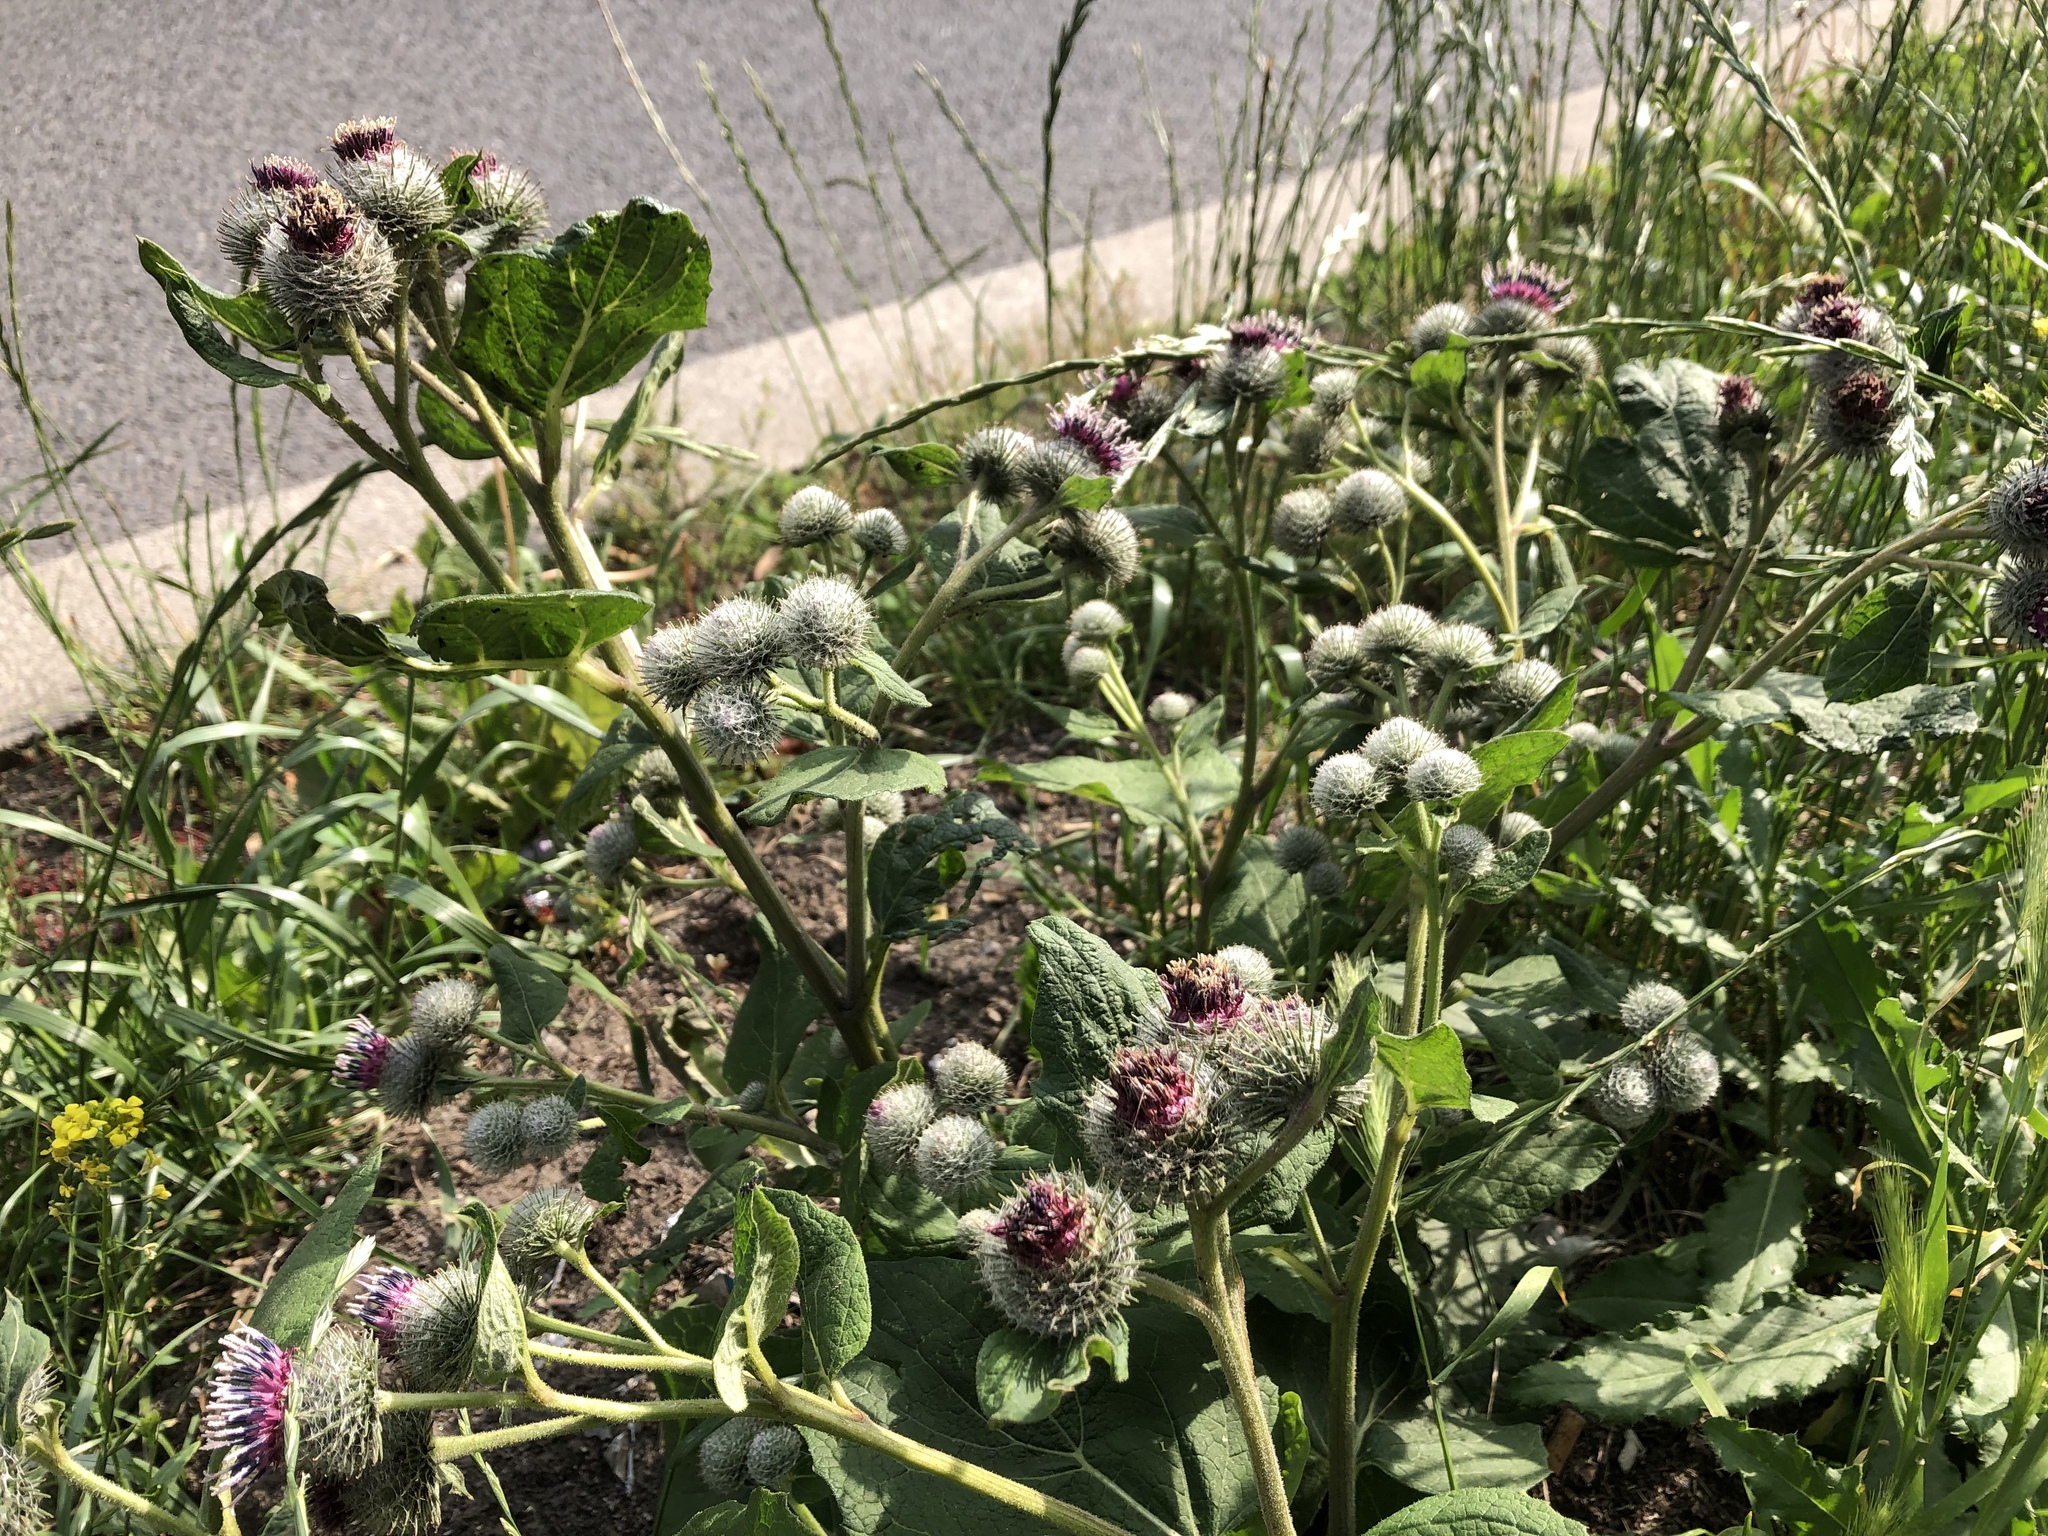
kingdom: Plantae
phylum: Tracheophyta
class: Magnoliopsida
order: Asterales
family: Asteraceae
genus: Arctium
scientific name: Arctium tomentosum
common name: Woolly burdock
